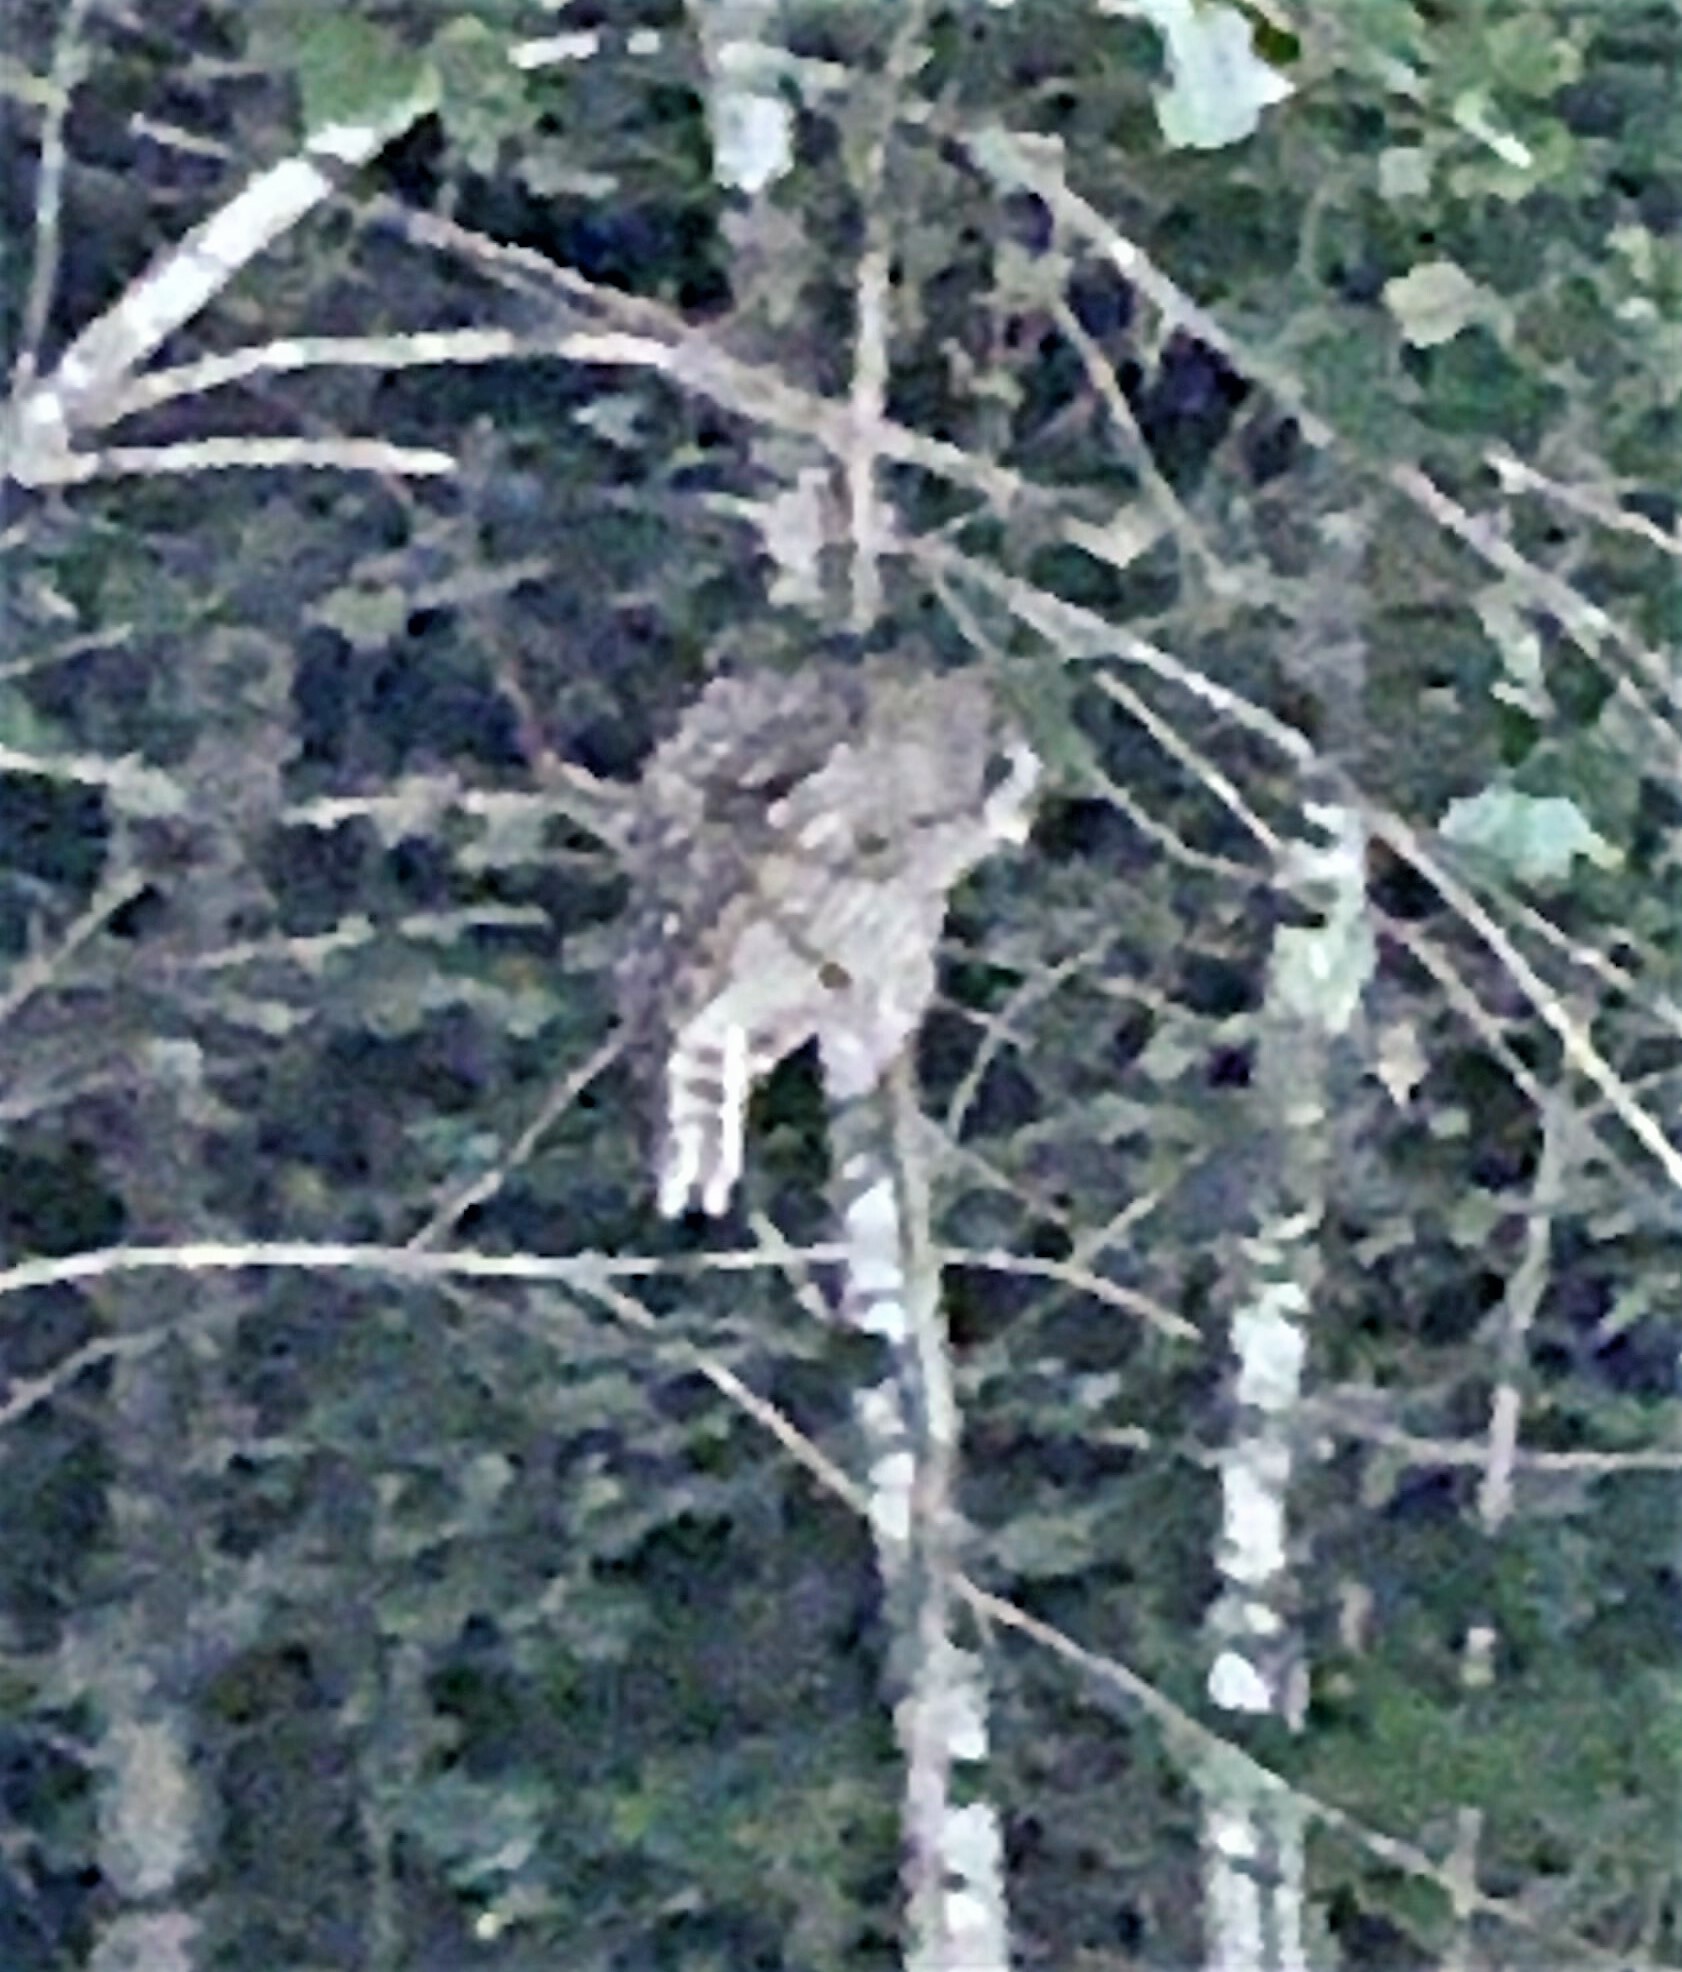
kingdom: Animalia
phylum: Chordata
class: Aves
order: Strigiformes
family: Strigidae
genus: Strix
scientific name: Strix varia
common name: Barred owl
